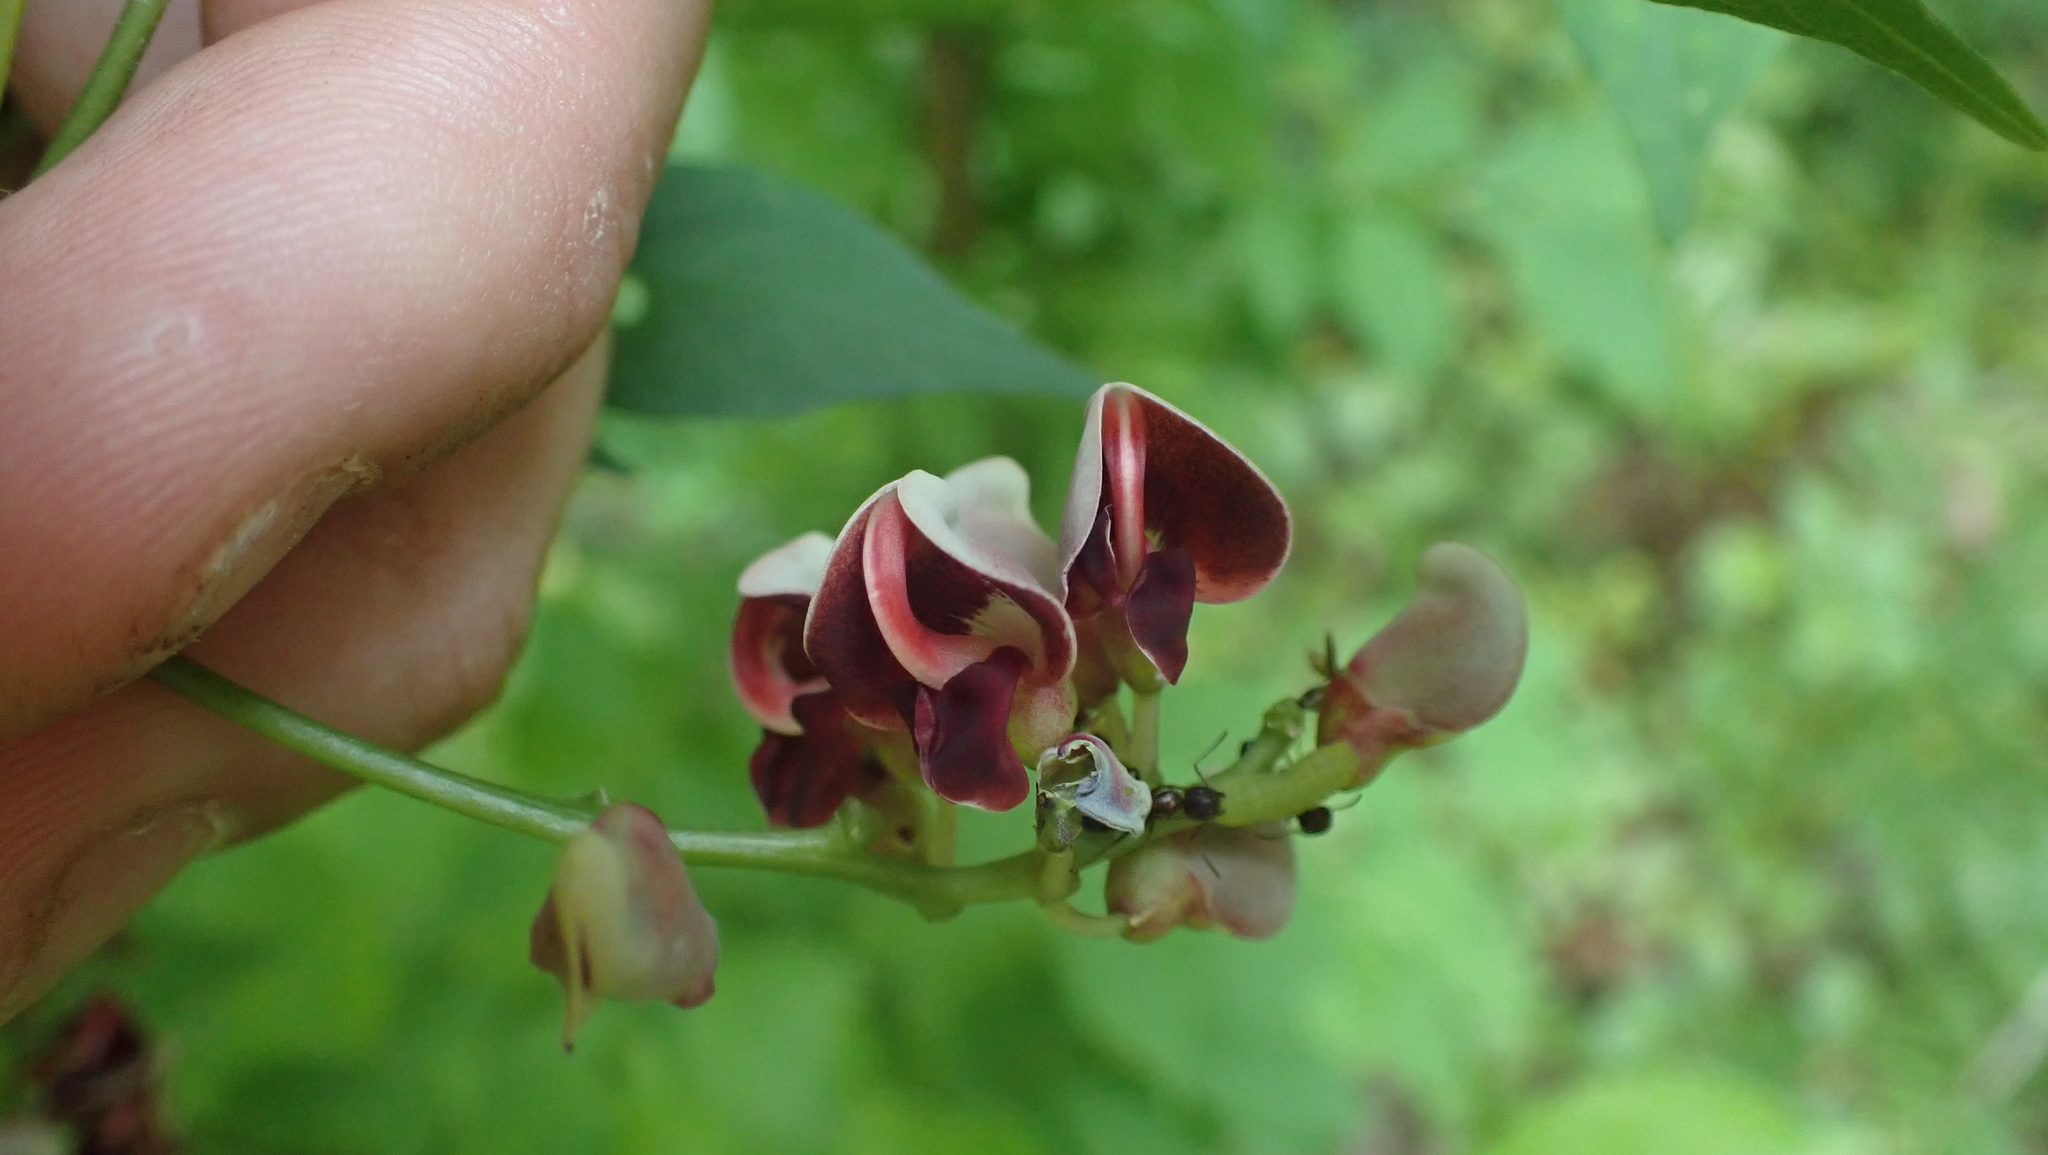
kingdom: Plantae
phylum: Tracheophyta
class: Magnoliopsida
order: Fabales
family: Fabaceae
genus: Apios
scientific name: Apios americana
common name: American potato-bean
